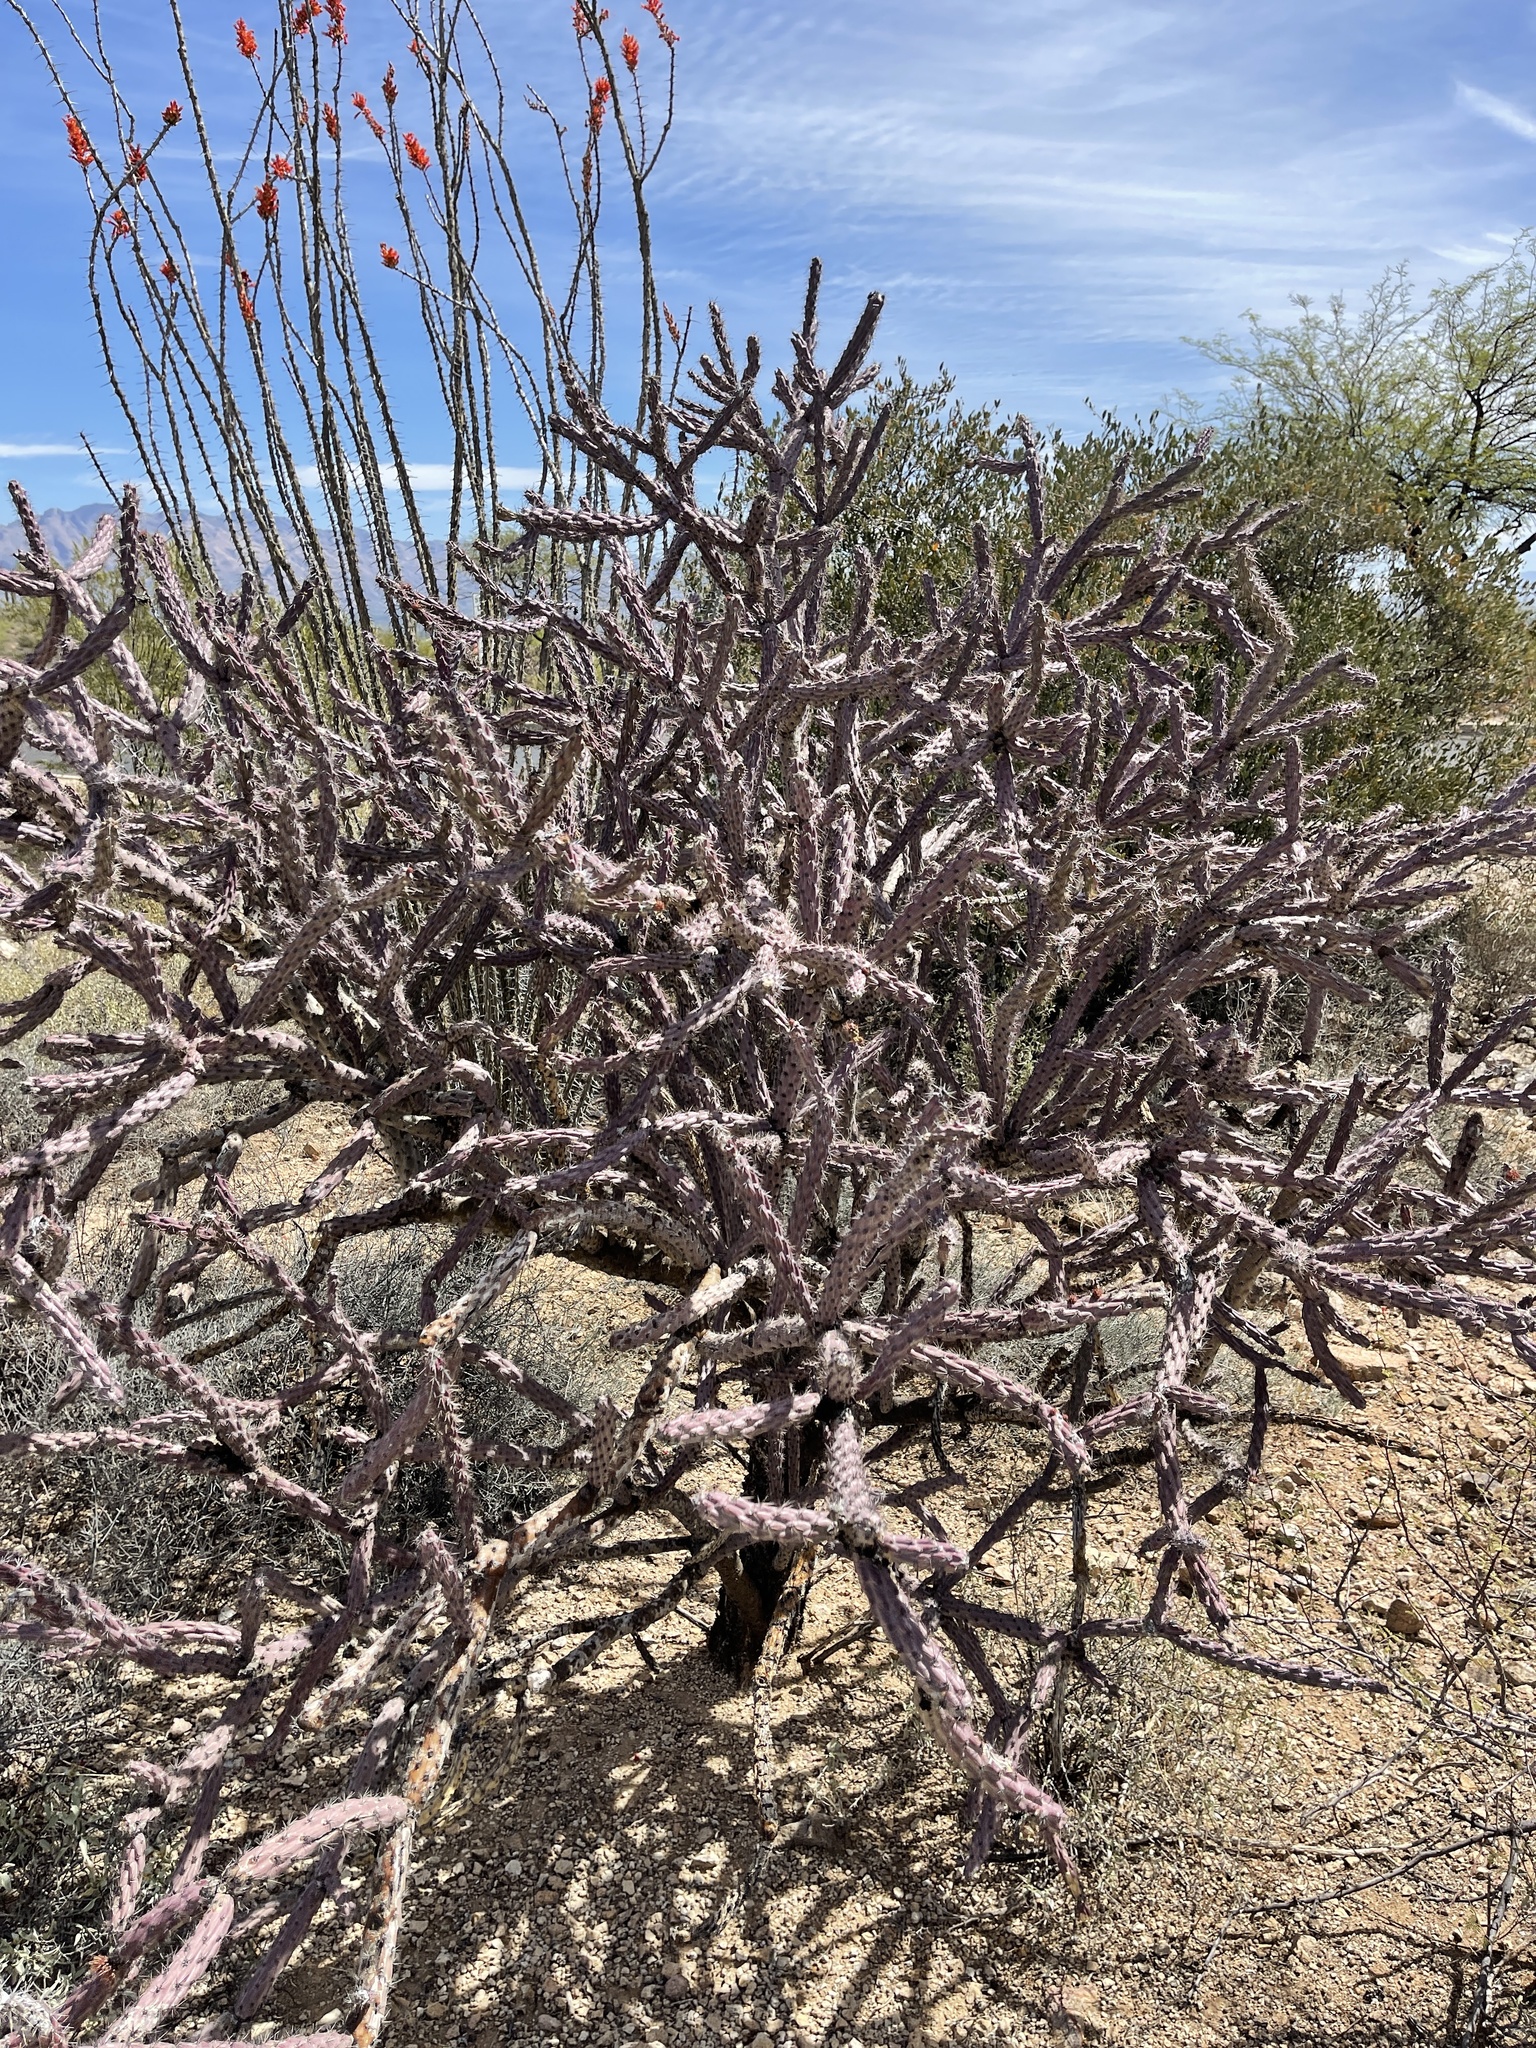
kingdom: Plantae
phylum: Tracheophyta
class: Magnoliopsida
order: Caryophyllales
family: Cactaceae
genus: Cylindropuntia
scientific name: Cylindropuntia thurberi
